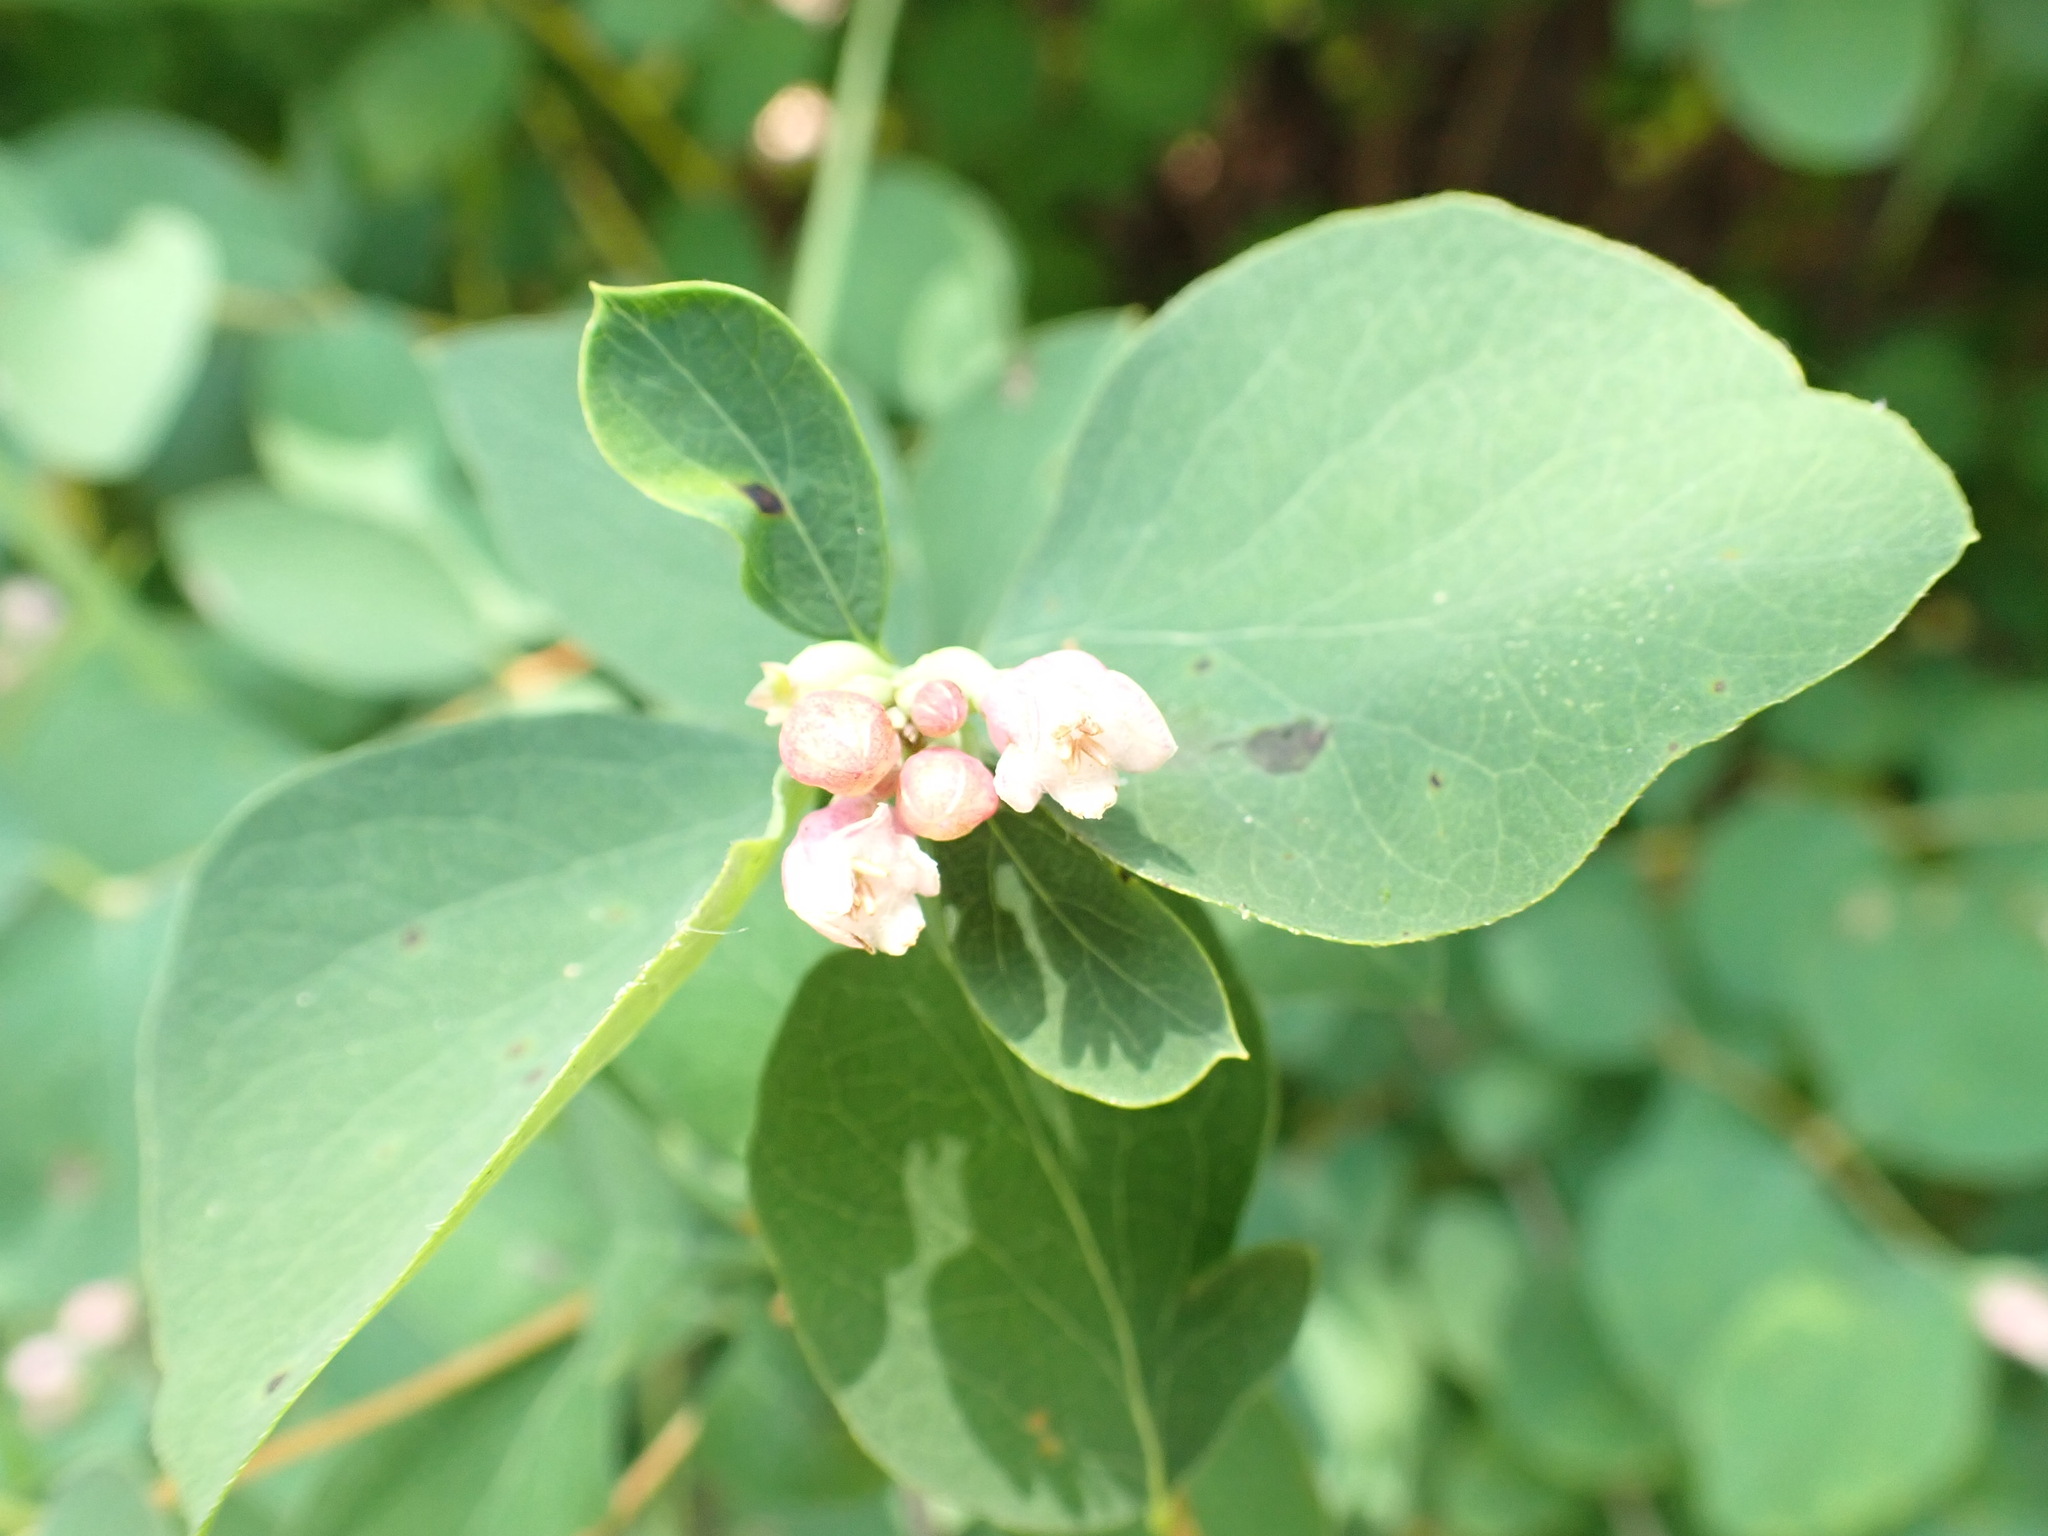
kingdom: Plantae
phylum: Tracheophyta
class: Magnoliopsida
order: Dipsacales
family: Caprifoliaceae
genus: Symphoricarpos
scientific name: Symphoricarpos albus
